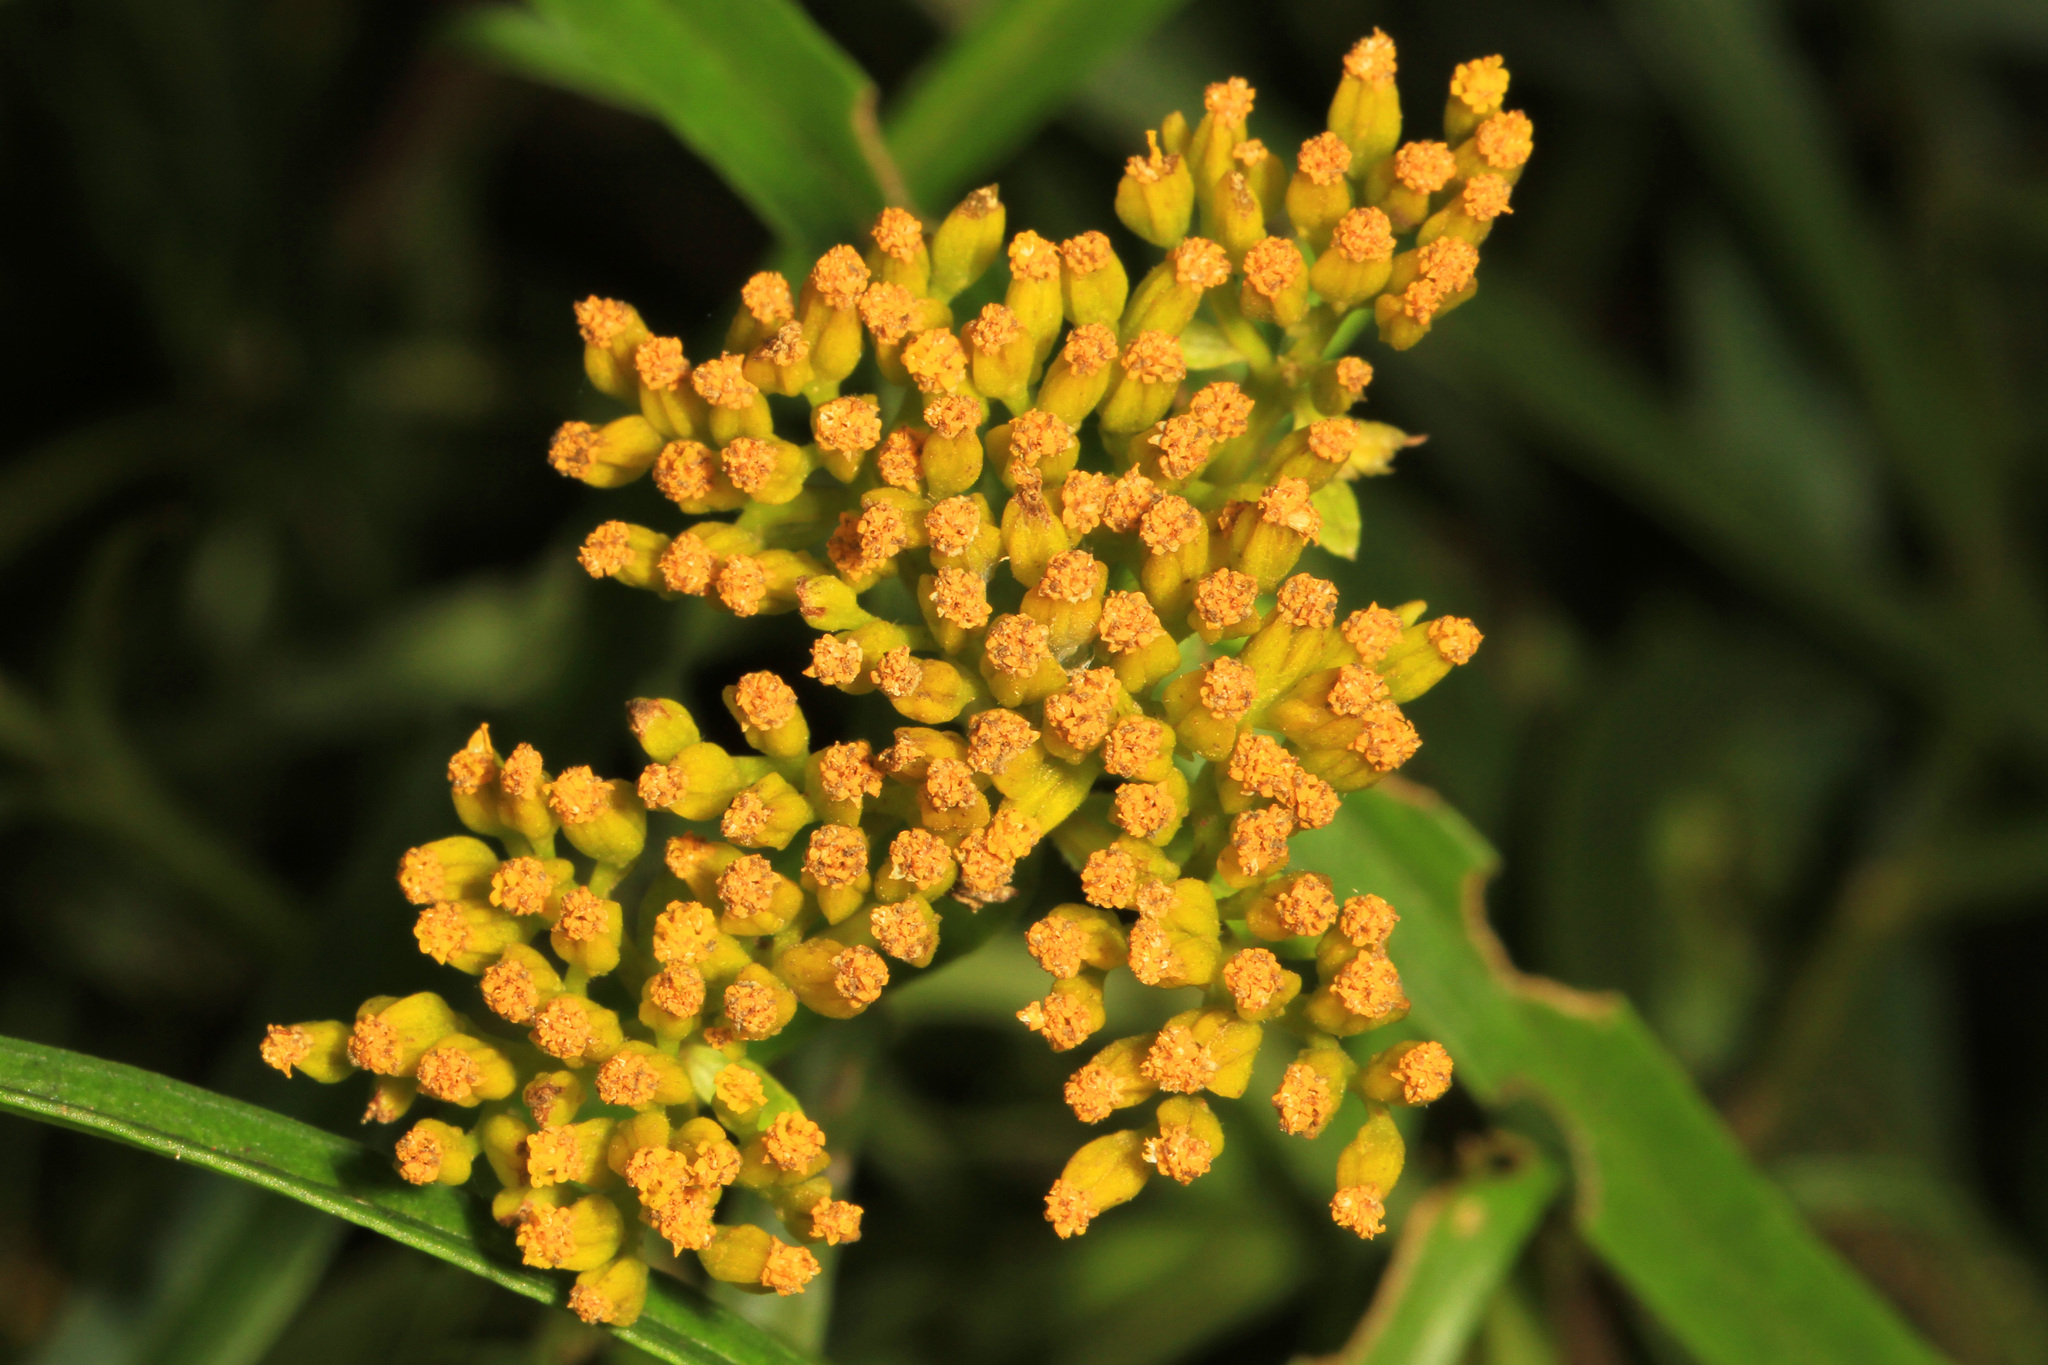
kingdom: Plantae
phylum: Tracheophyta
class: Magnoliopsida
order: Asterales
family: Asteraceae
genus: Flaveria
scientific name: Flaveria linearis
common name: Yellowtop
